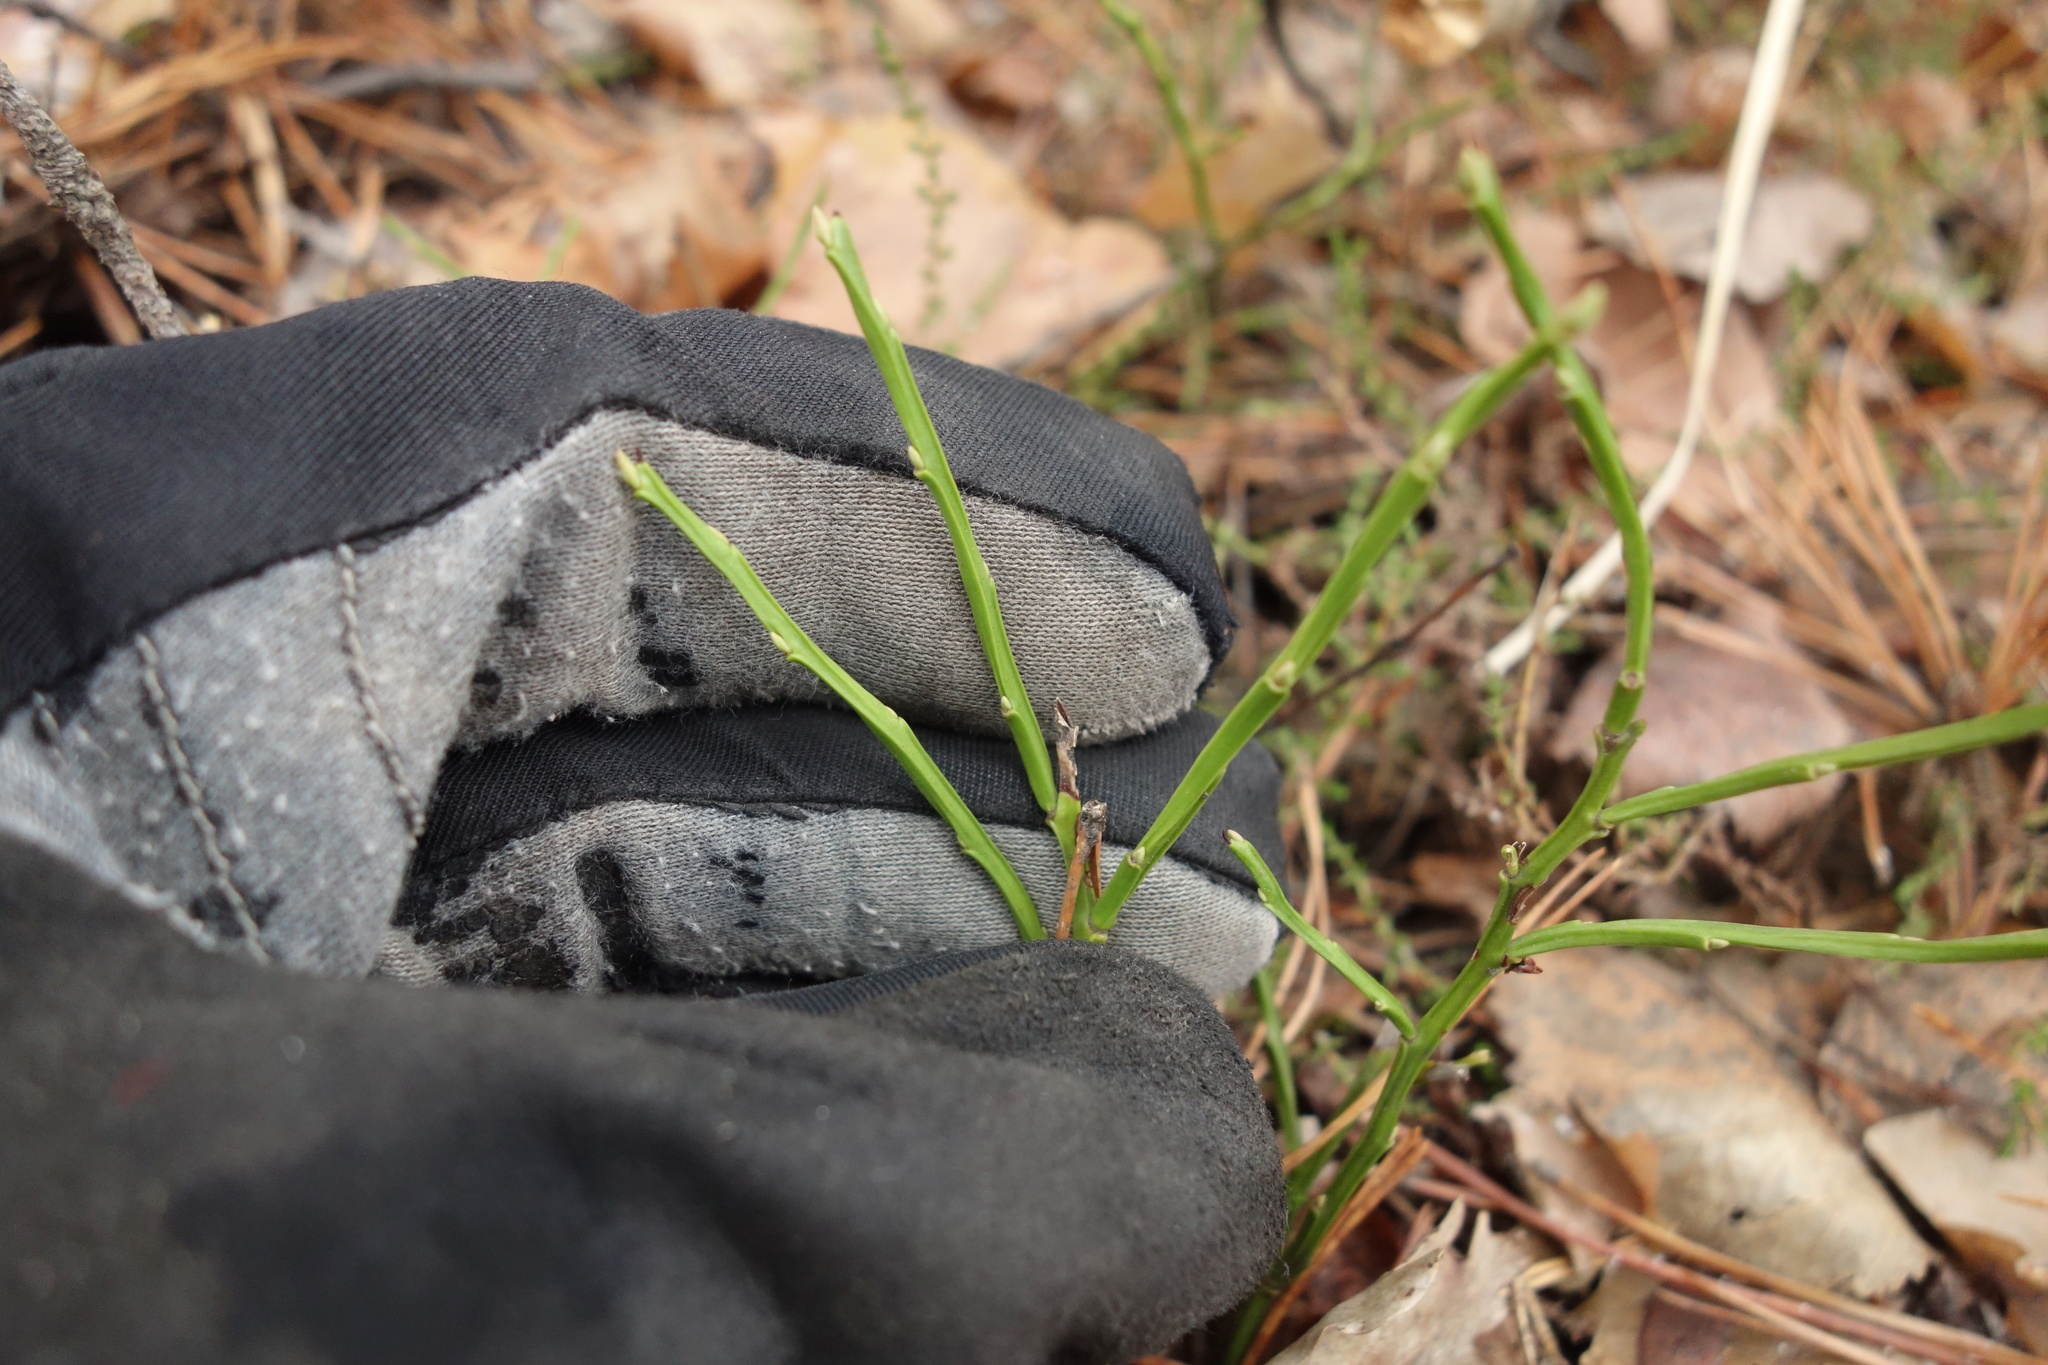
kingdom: Plantae
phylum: Tracheophyta
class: Magnoliopsida
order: Ericales
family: Ericaceae
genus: Vaccinium
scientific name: Vaccinium myrtillus
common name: Bilberry
